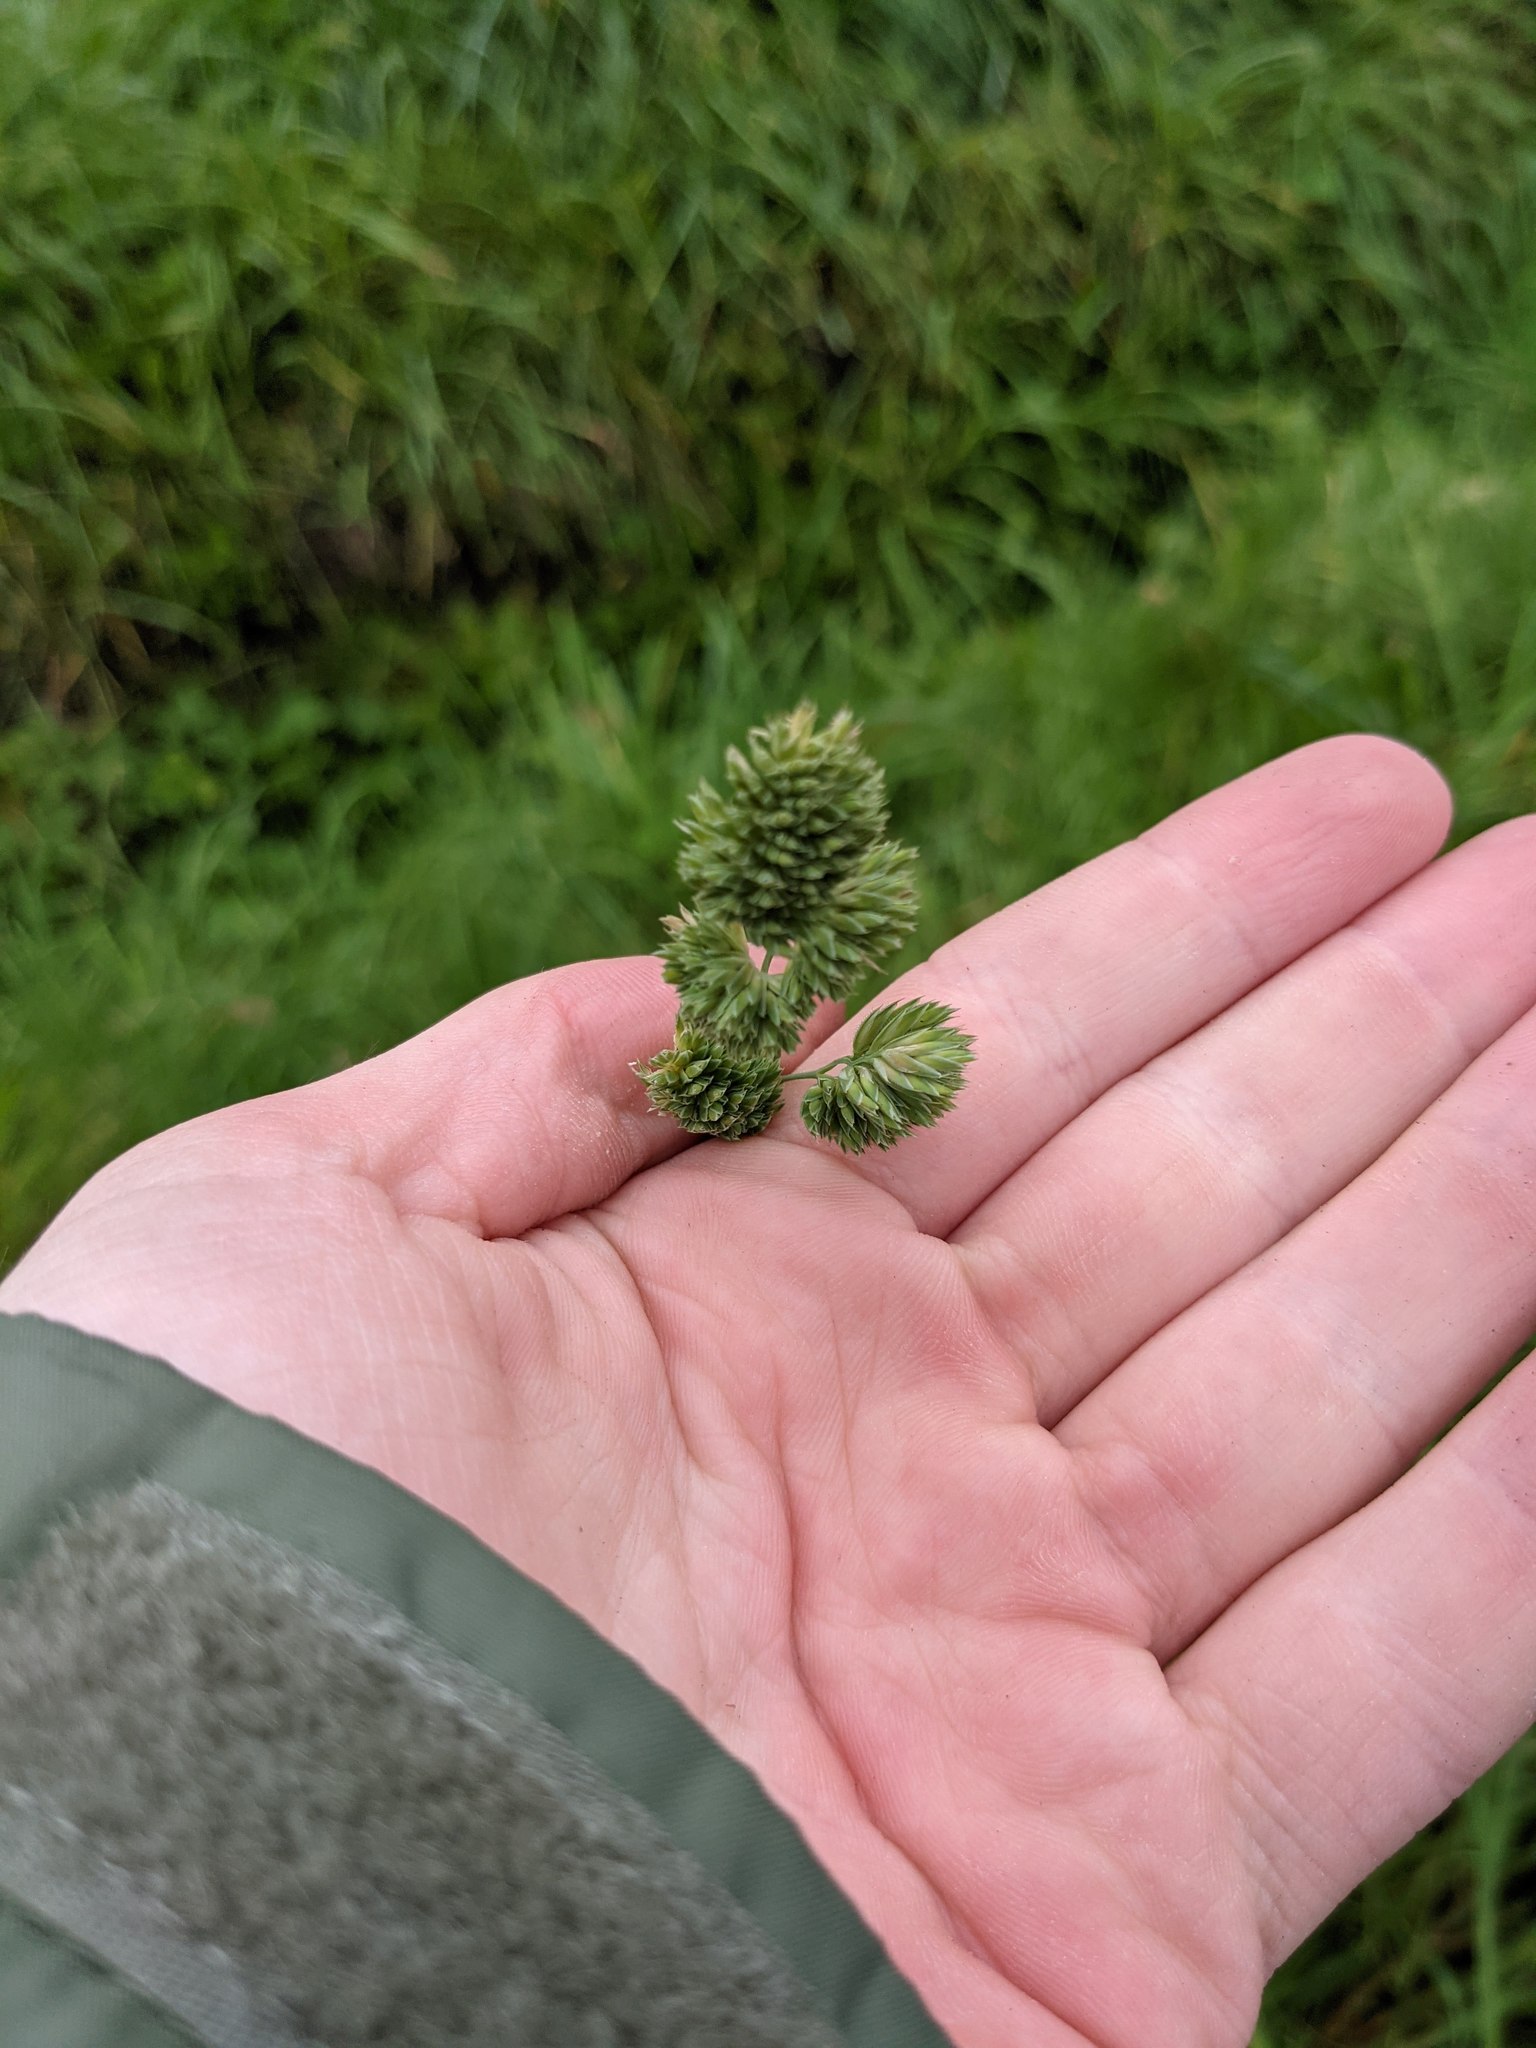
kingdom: Plantae
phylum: Tracheophyta
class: Liliopsida
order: Poales
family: Poaceae
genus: Dactylis
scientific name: Dactylis glomerata
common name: Orchardgrass
